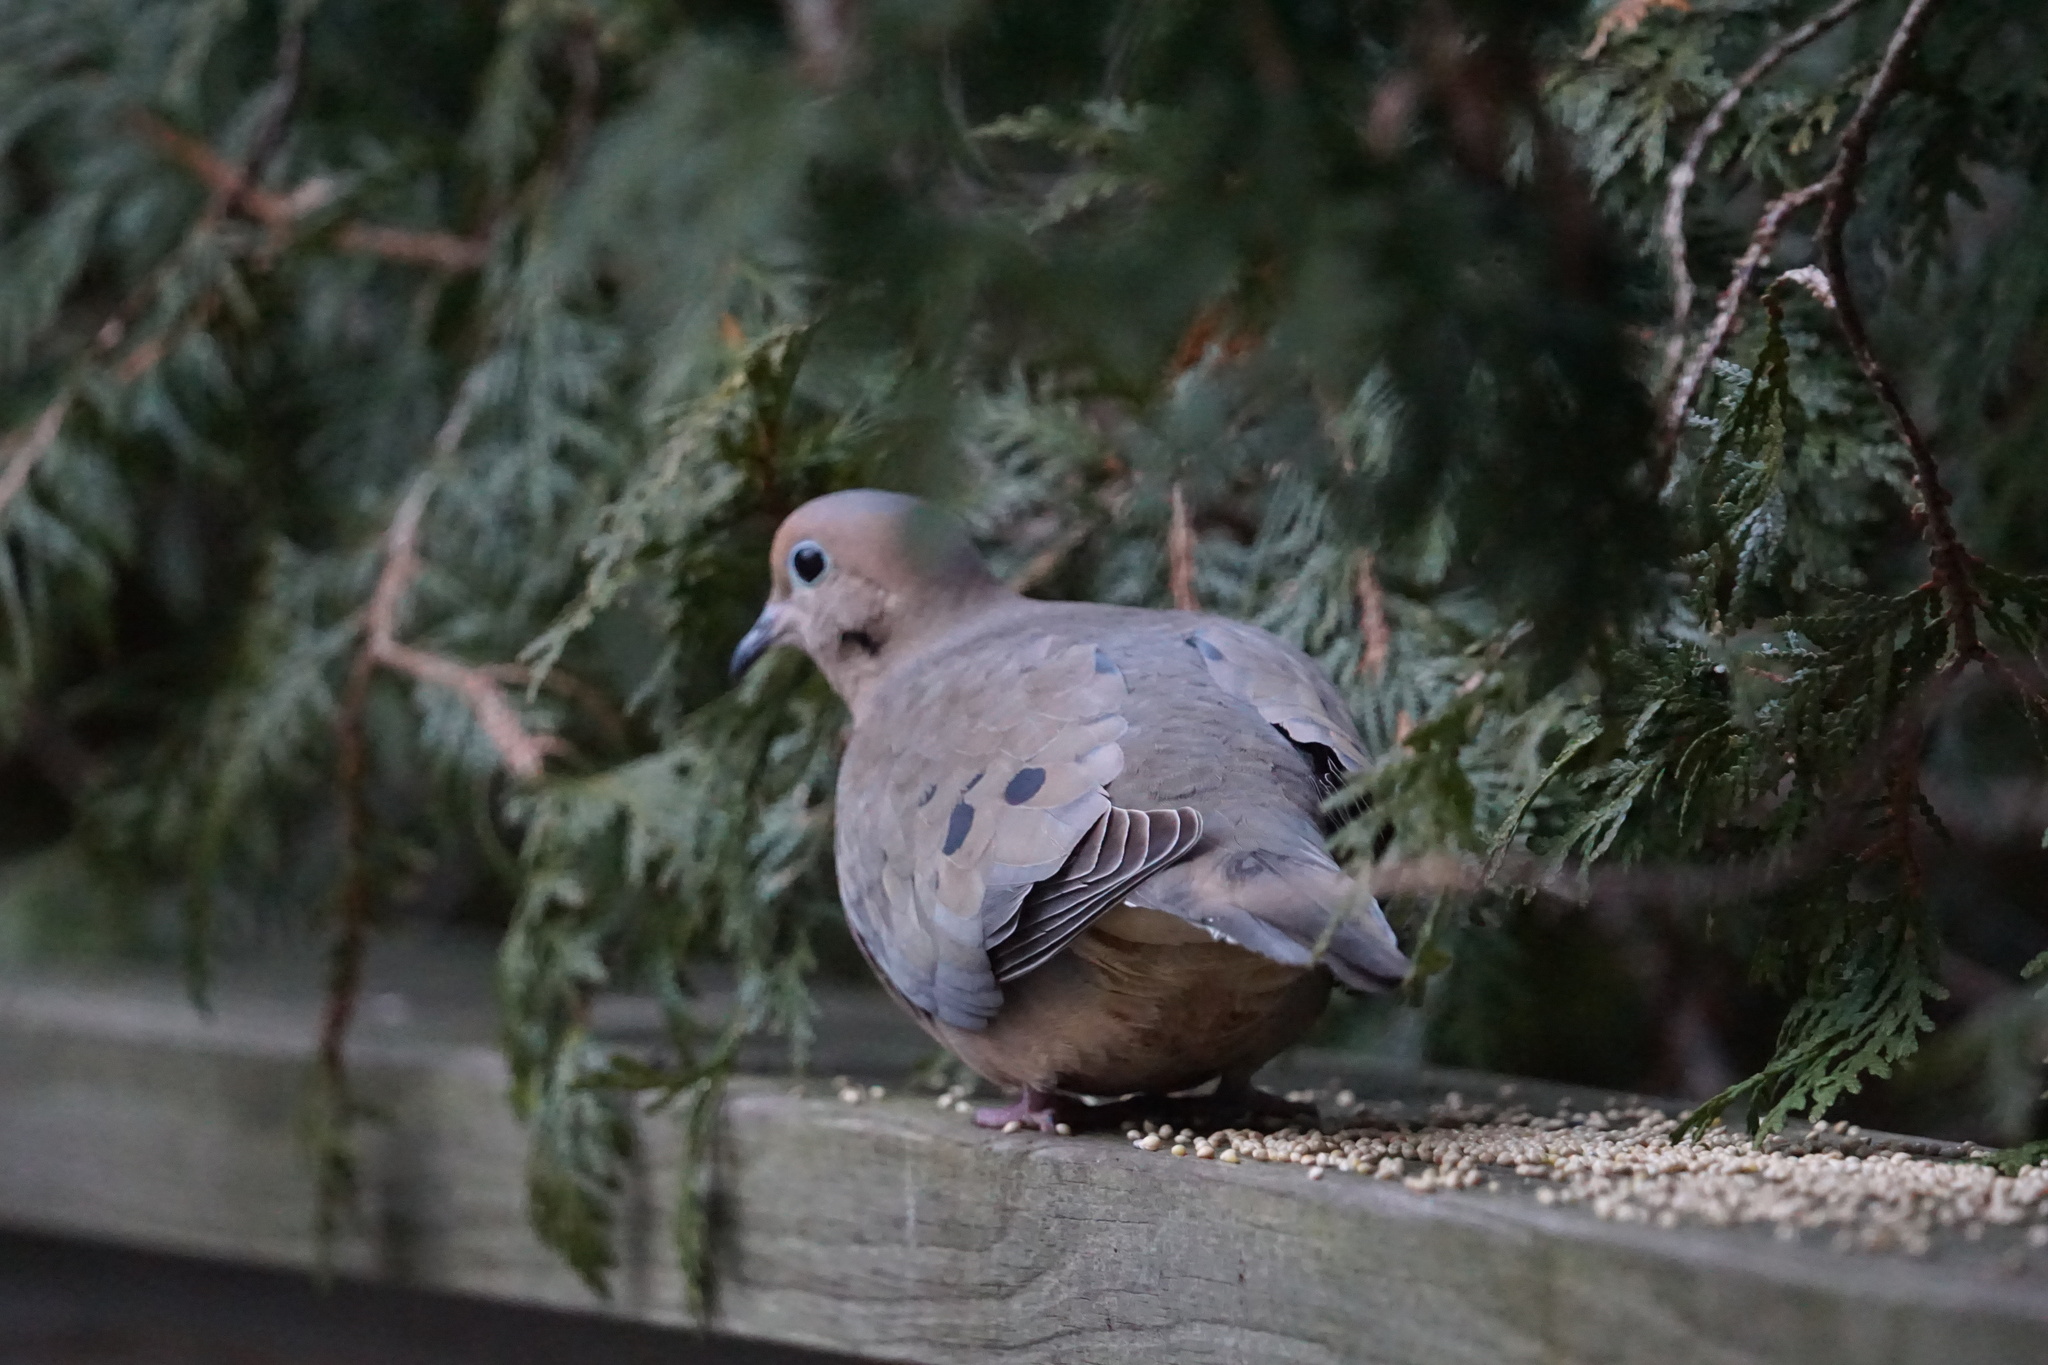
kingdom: Animalia
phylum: Chordata
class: Aves
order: Columbiformes
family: Columbidae
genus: Zenaida
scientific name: Zenaida macroura
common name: Mourning dove
